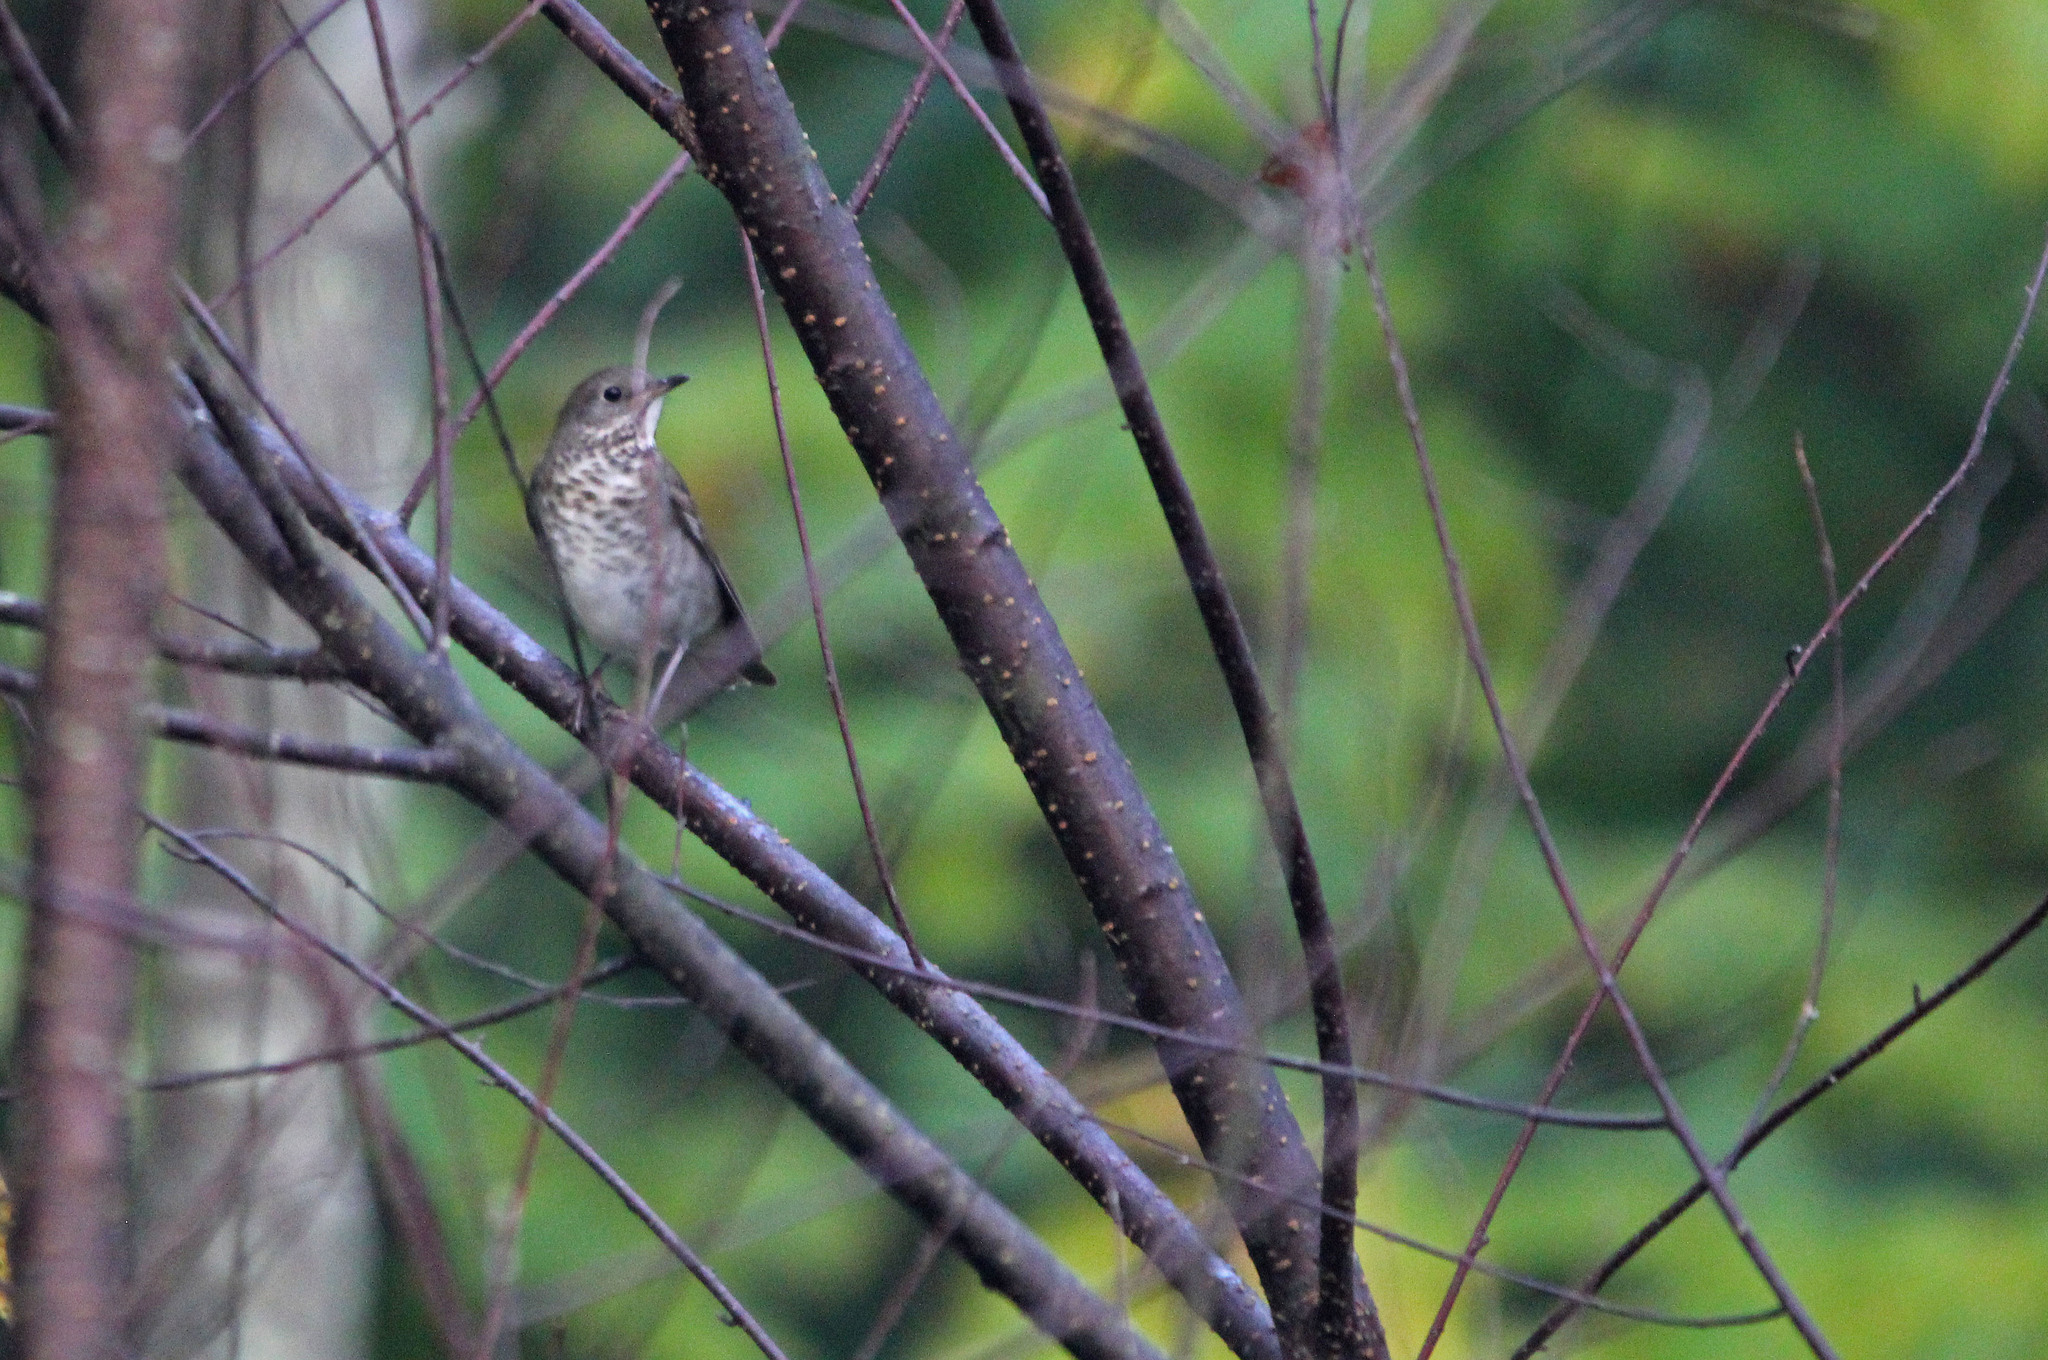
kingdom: Animalia
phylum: Chordata
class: Aves
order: Passeriformes
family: Turdidae
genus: Catharus
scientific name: Catharus minimus
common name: Grey-cheeked thrush
